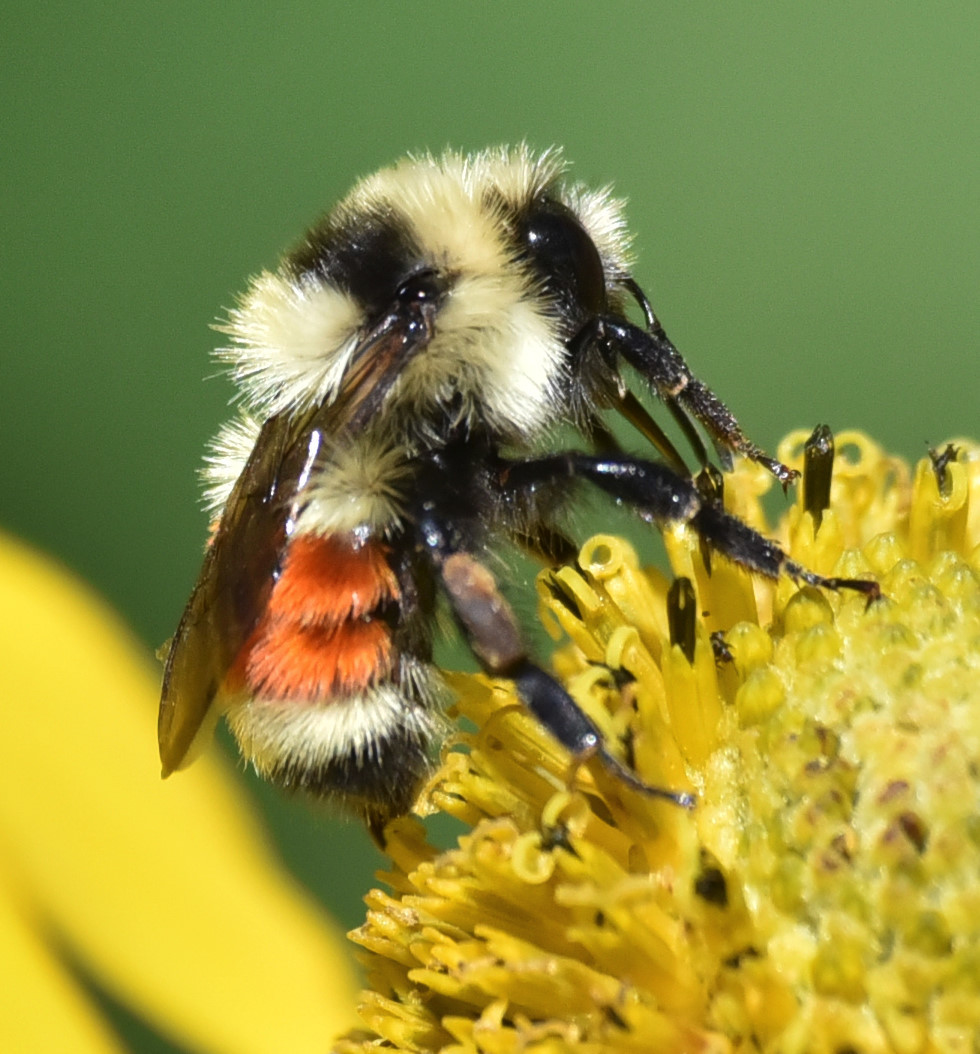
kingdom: Animalia
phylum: Arthropoda
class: Insecta
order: Hymenoptera
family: Apidae
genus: Bombus
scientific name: Bombus huntii
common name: Hunt bumble bee
